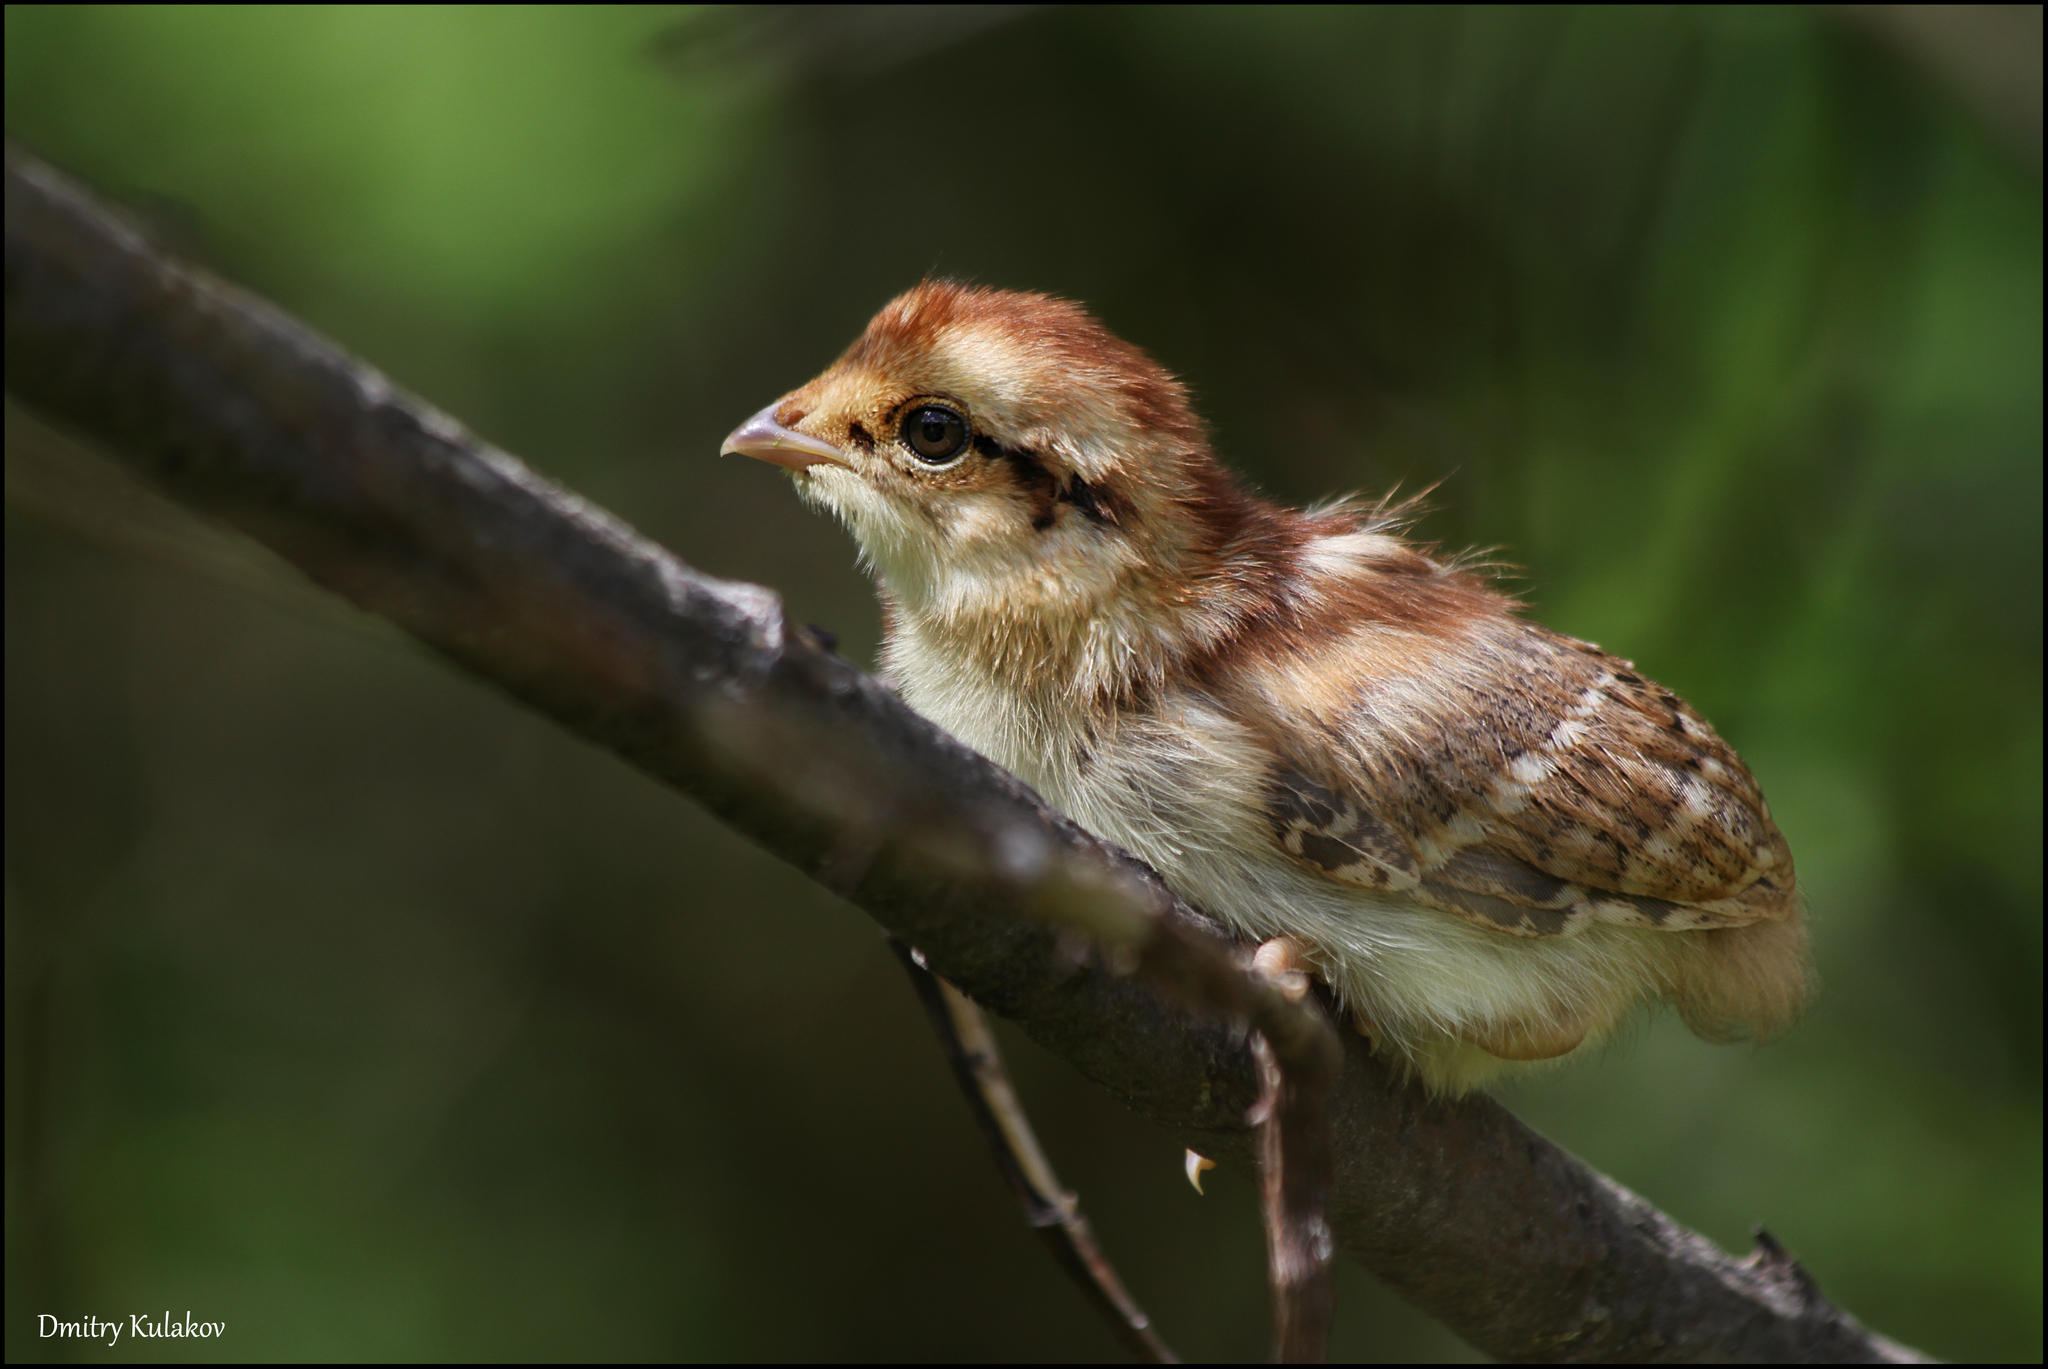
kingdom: Animalia
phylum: Chordata
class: Aves
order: Galliformes
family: Phasianidae
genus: Tetrastes
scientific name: Tetrastes bonasia
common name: Hazel grouse
